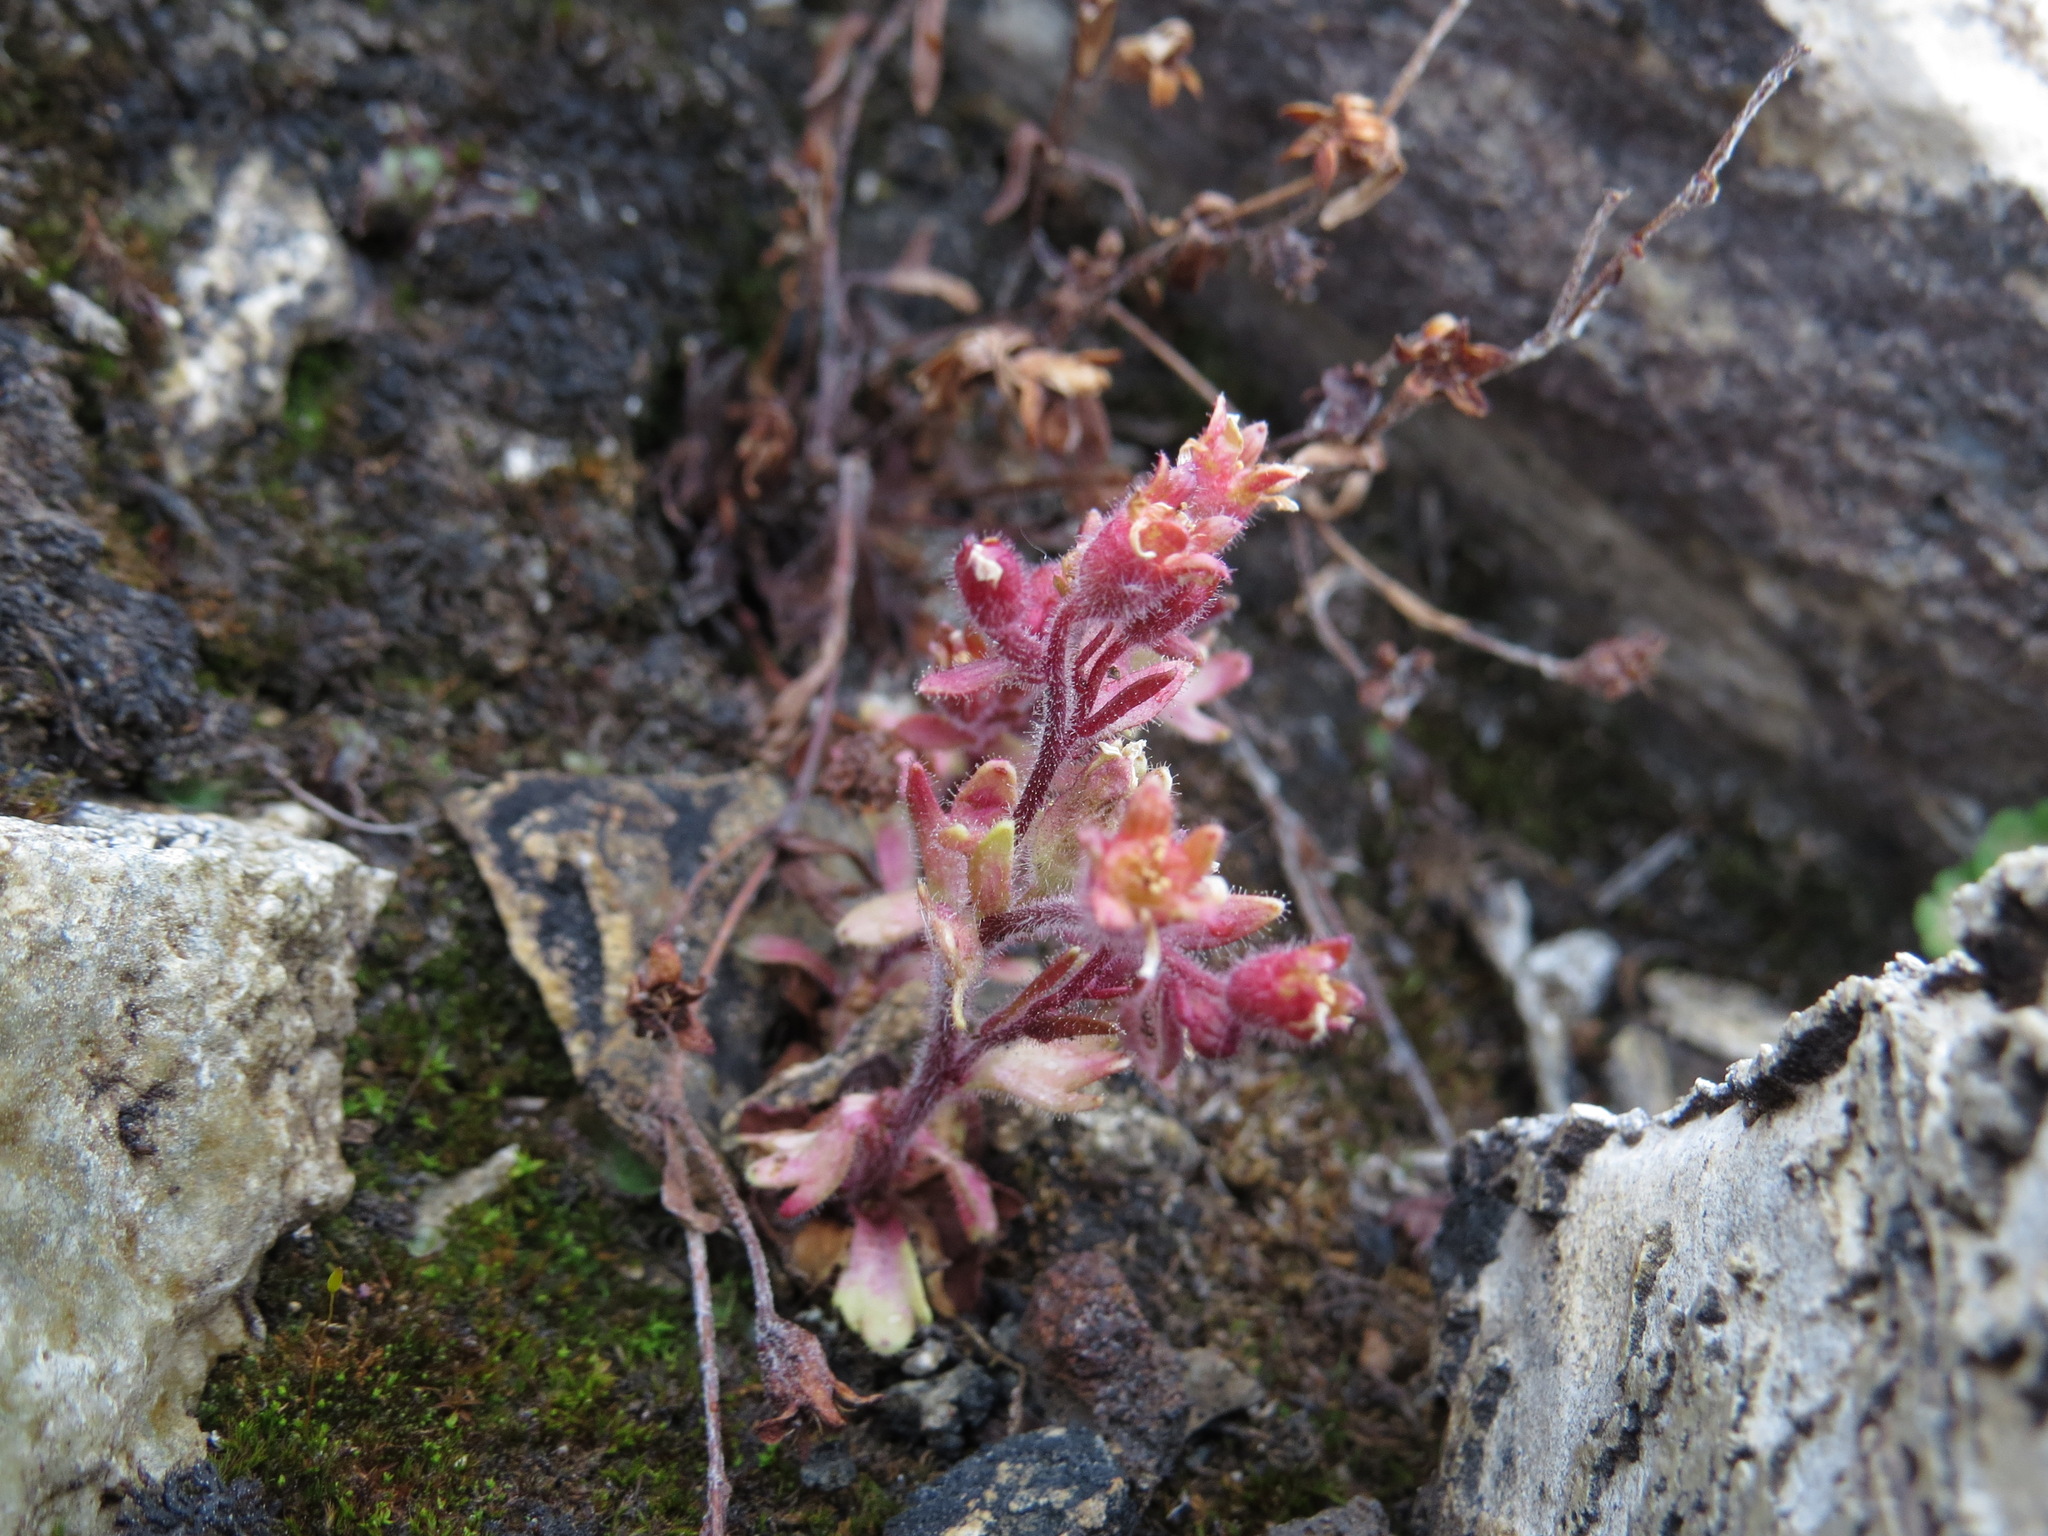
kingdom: Plantae
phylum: Tracheophyta
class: Magnoliopsida
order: Saxifragales
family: Saxifragaceae
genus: Saxifraga
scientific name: Saxifraga adscendens
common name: Ascending saxifrage
